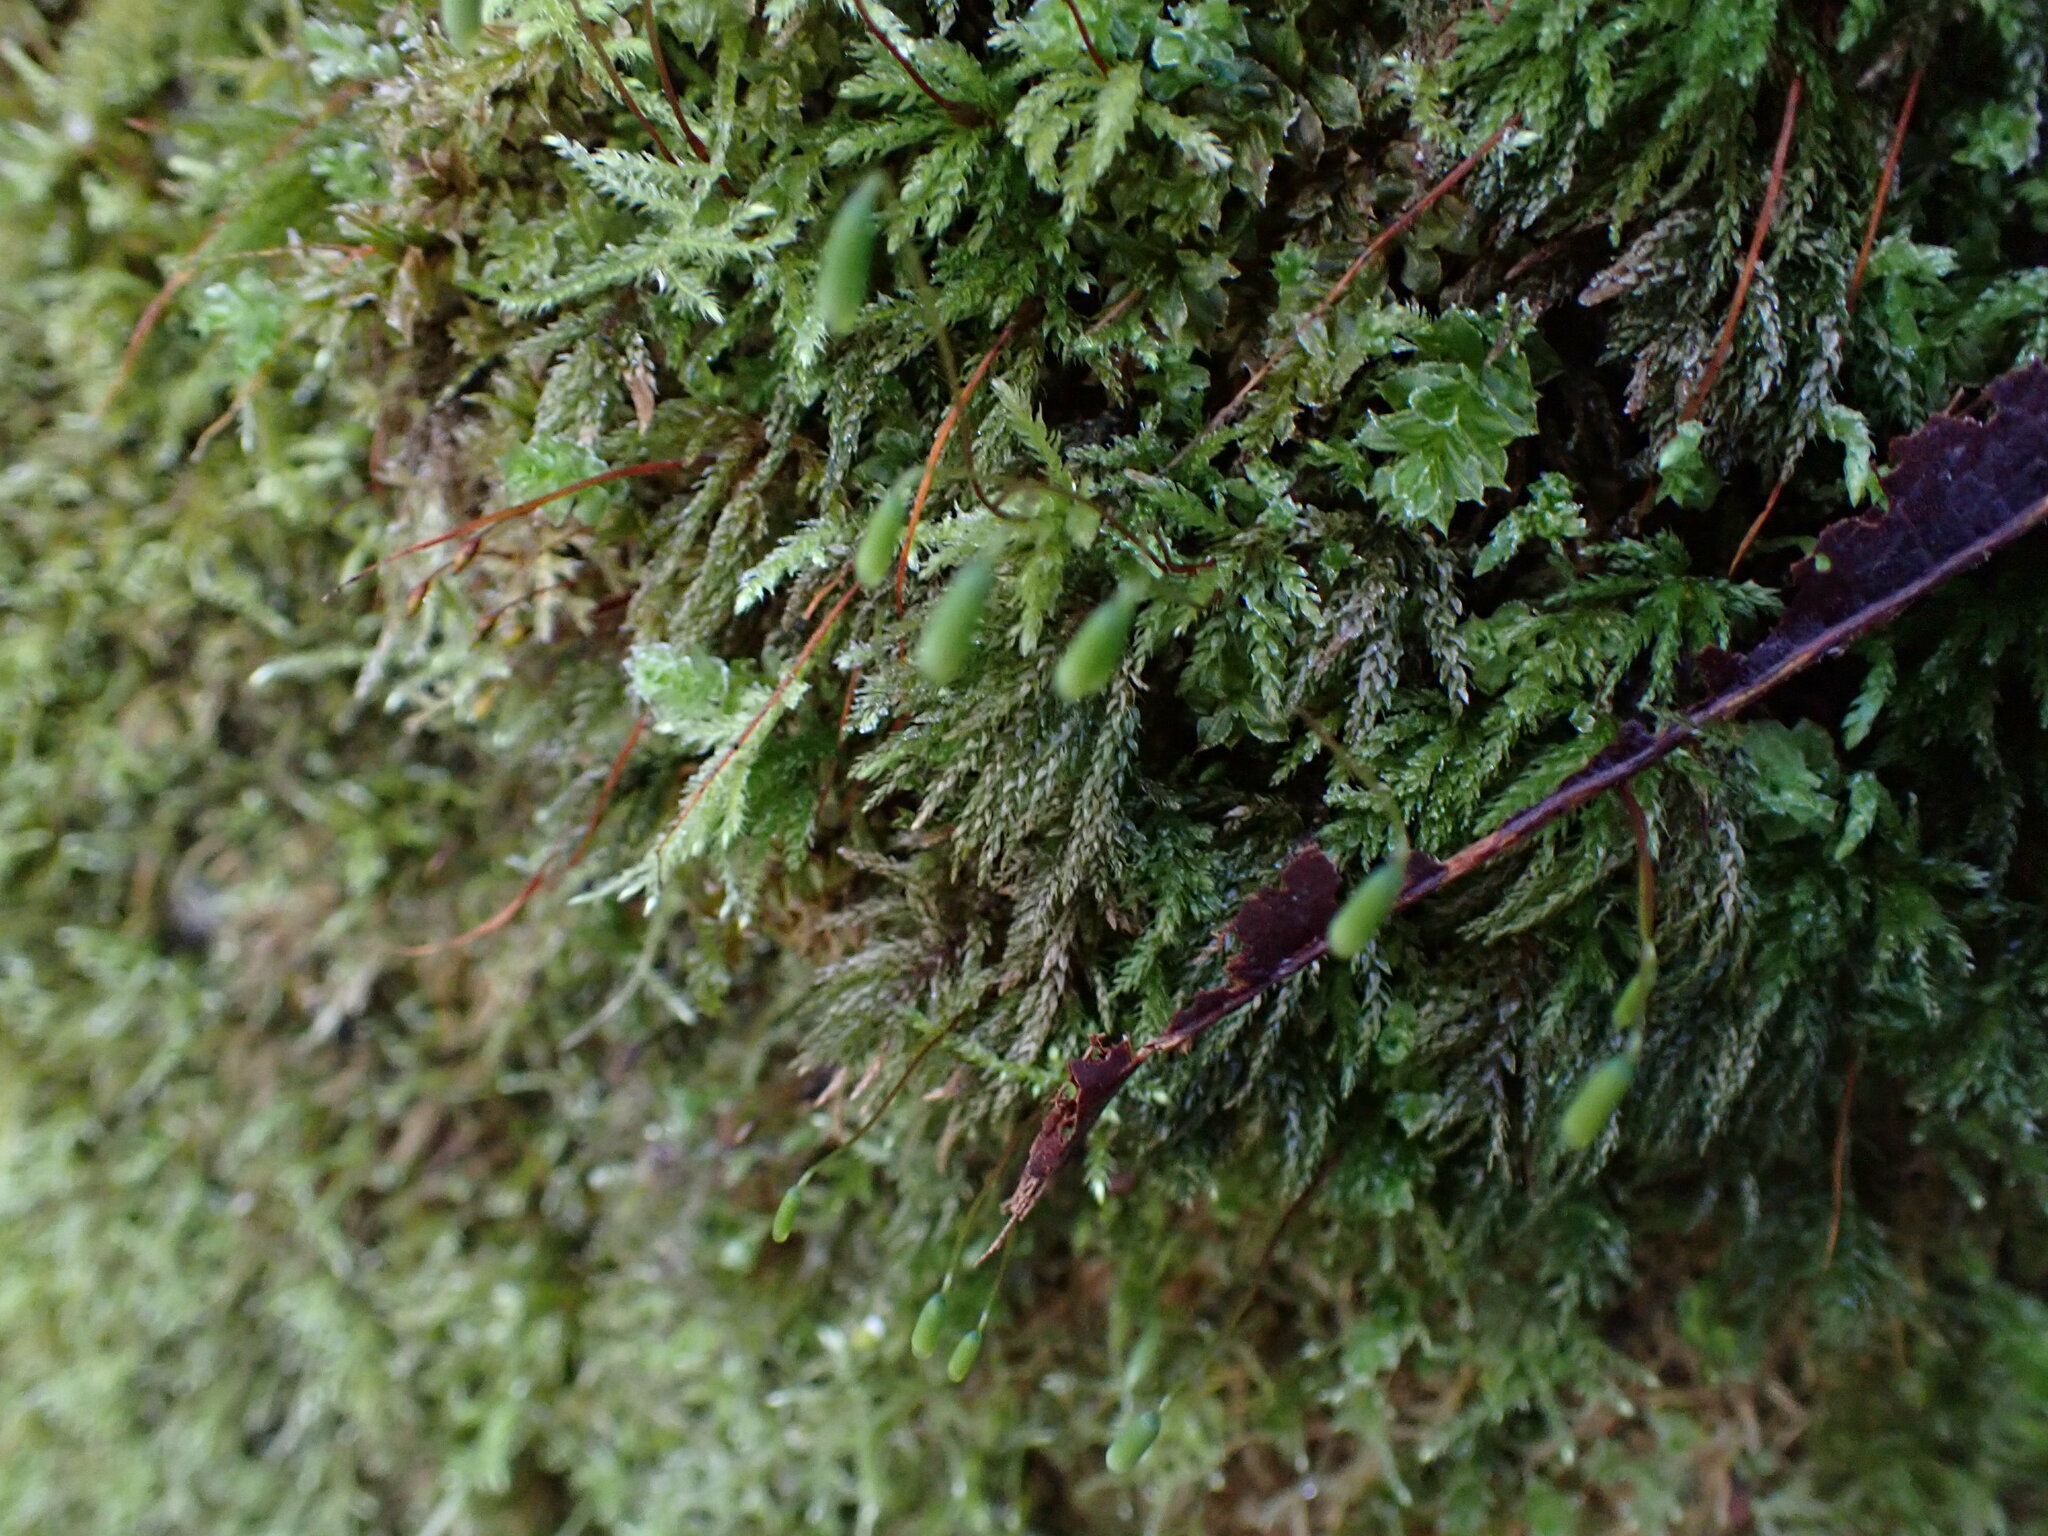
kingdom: Plantae
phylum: Bryophyta
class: Bryopsida
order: Bryales
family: Mniaceae
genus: Leucolepis
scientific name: Leucolepis acanthoneura
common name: Leucolepis umbrella moss
